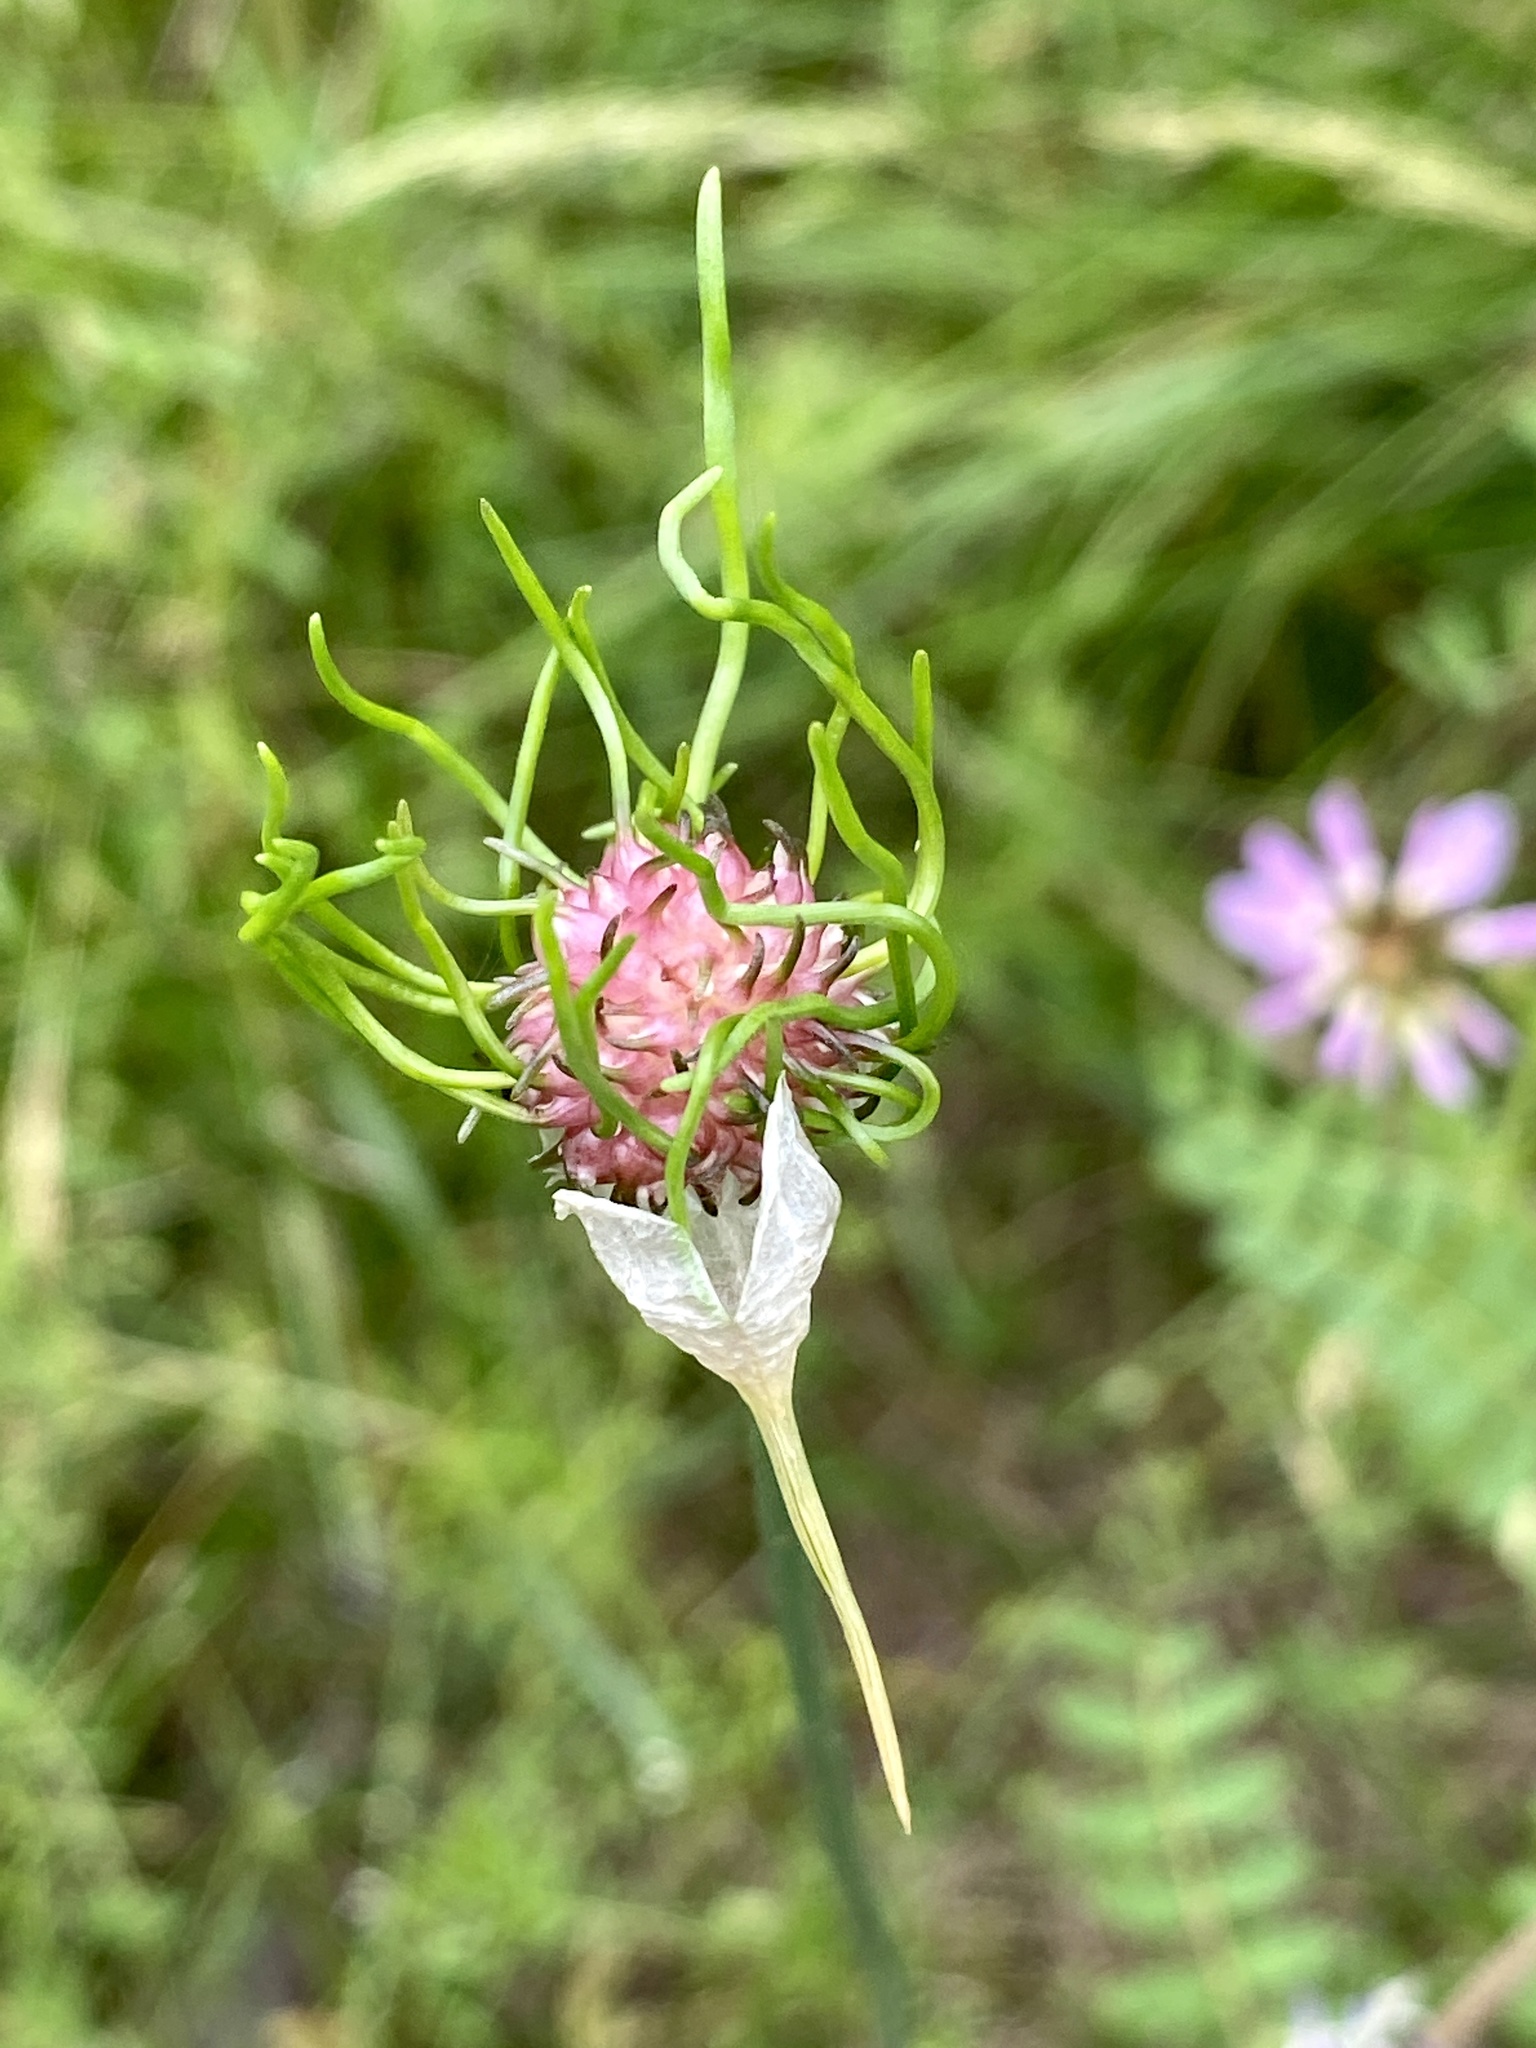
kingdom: Plantae
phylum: Tracheophyta
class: Liliopsida
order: Asparagales
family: Amaryllidaceae
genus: Allium
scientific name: Allium vineale
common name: Crow garlic
